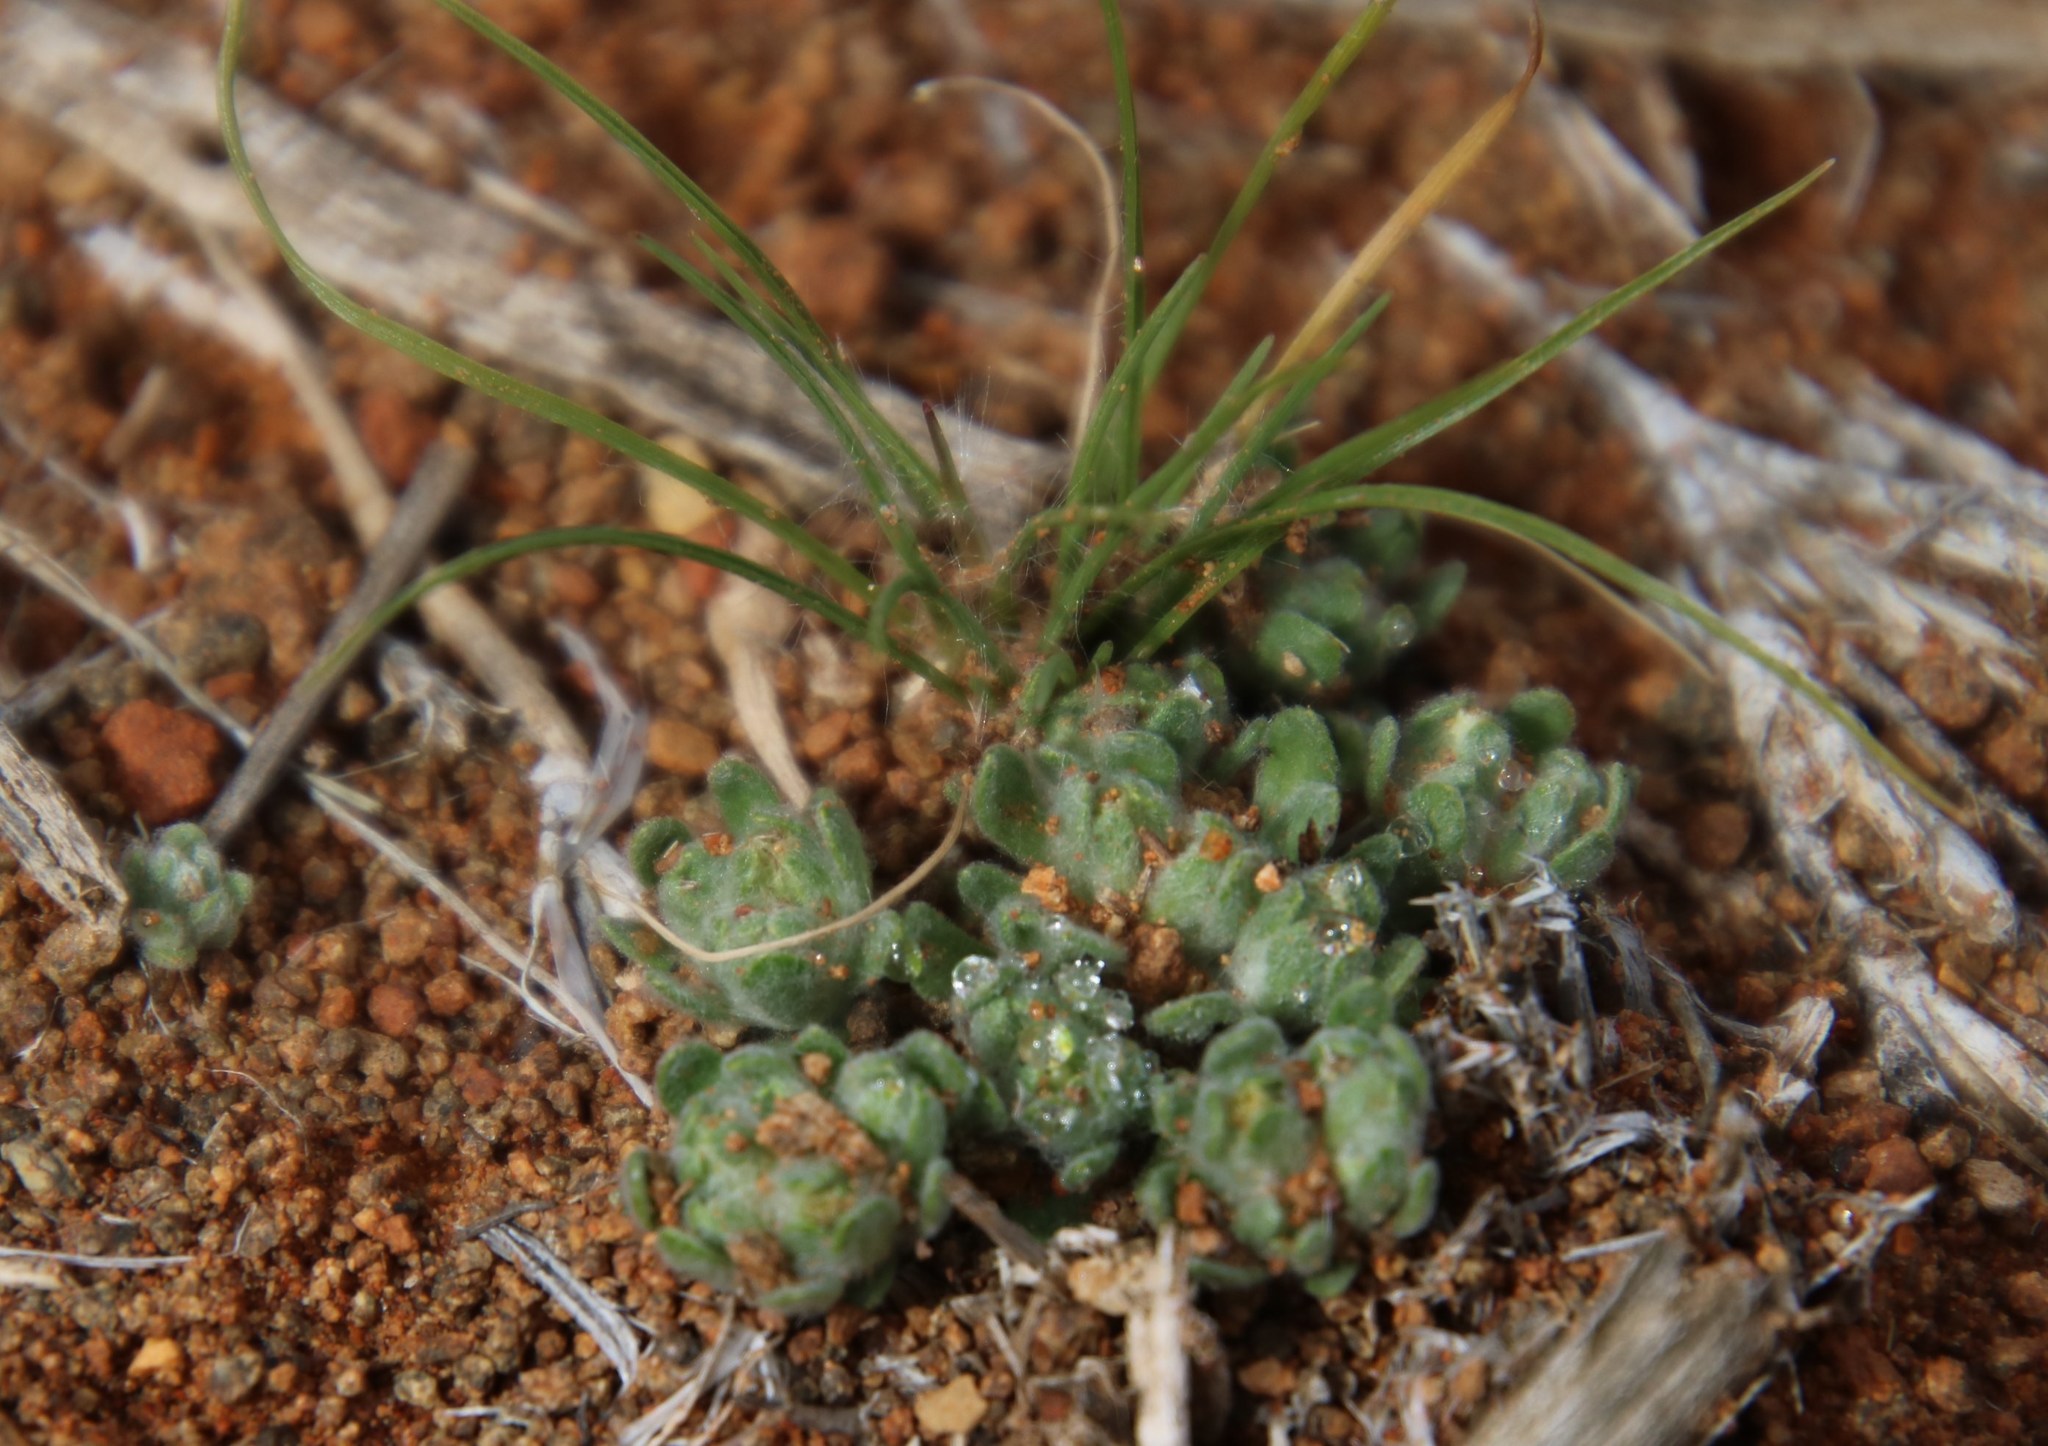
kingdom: Plantae
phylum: Tracheophyta
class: Magnoliopsida
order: Asterales
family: Asteraceae
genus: Lasiopogon
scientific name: Lasiopogon muscoides
